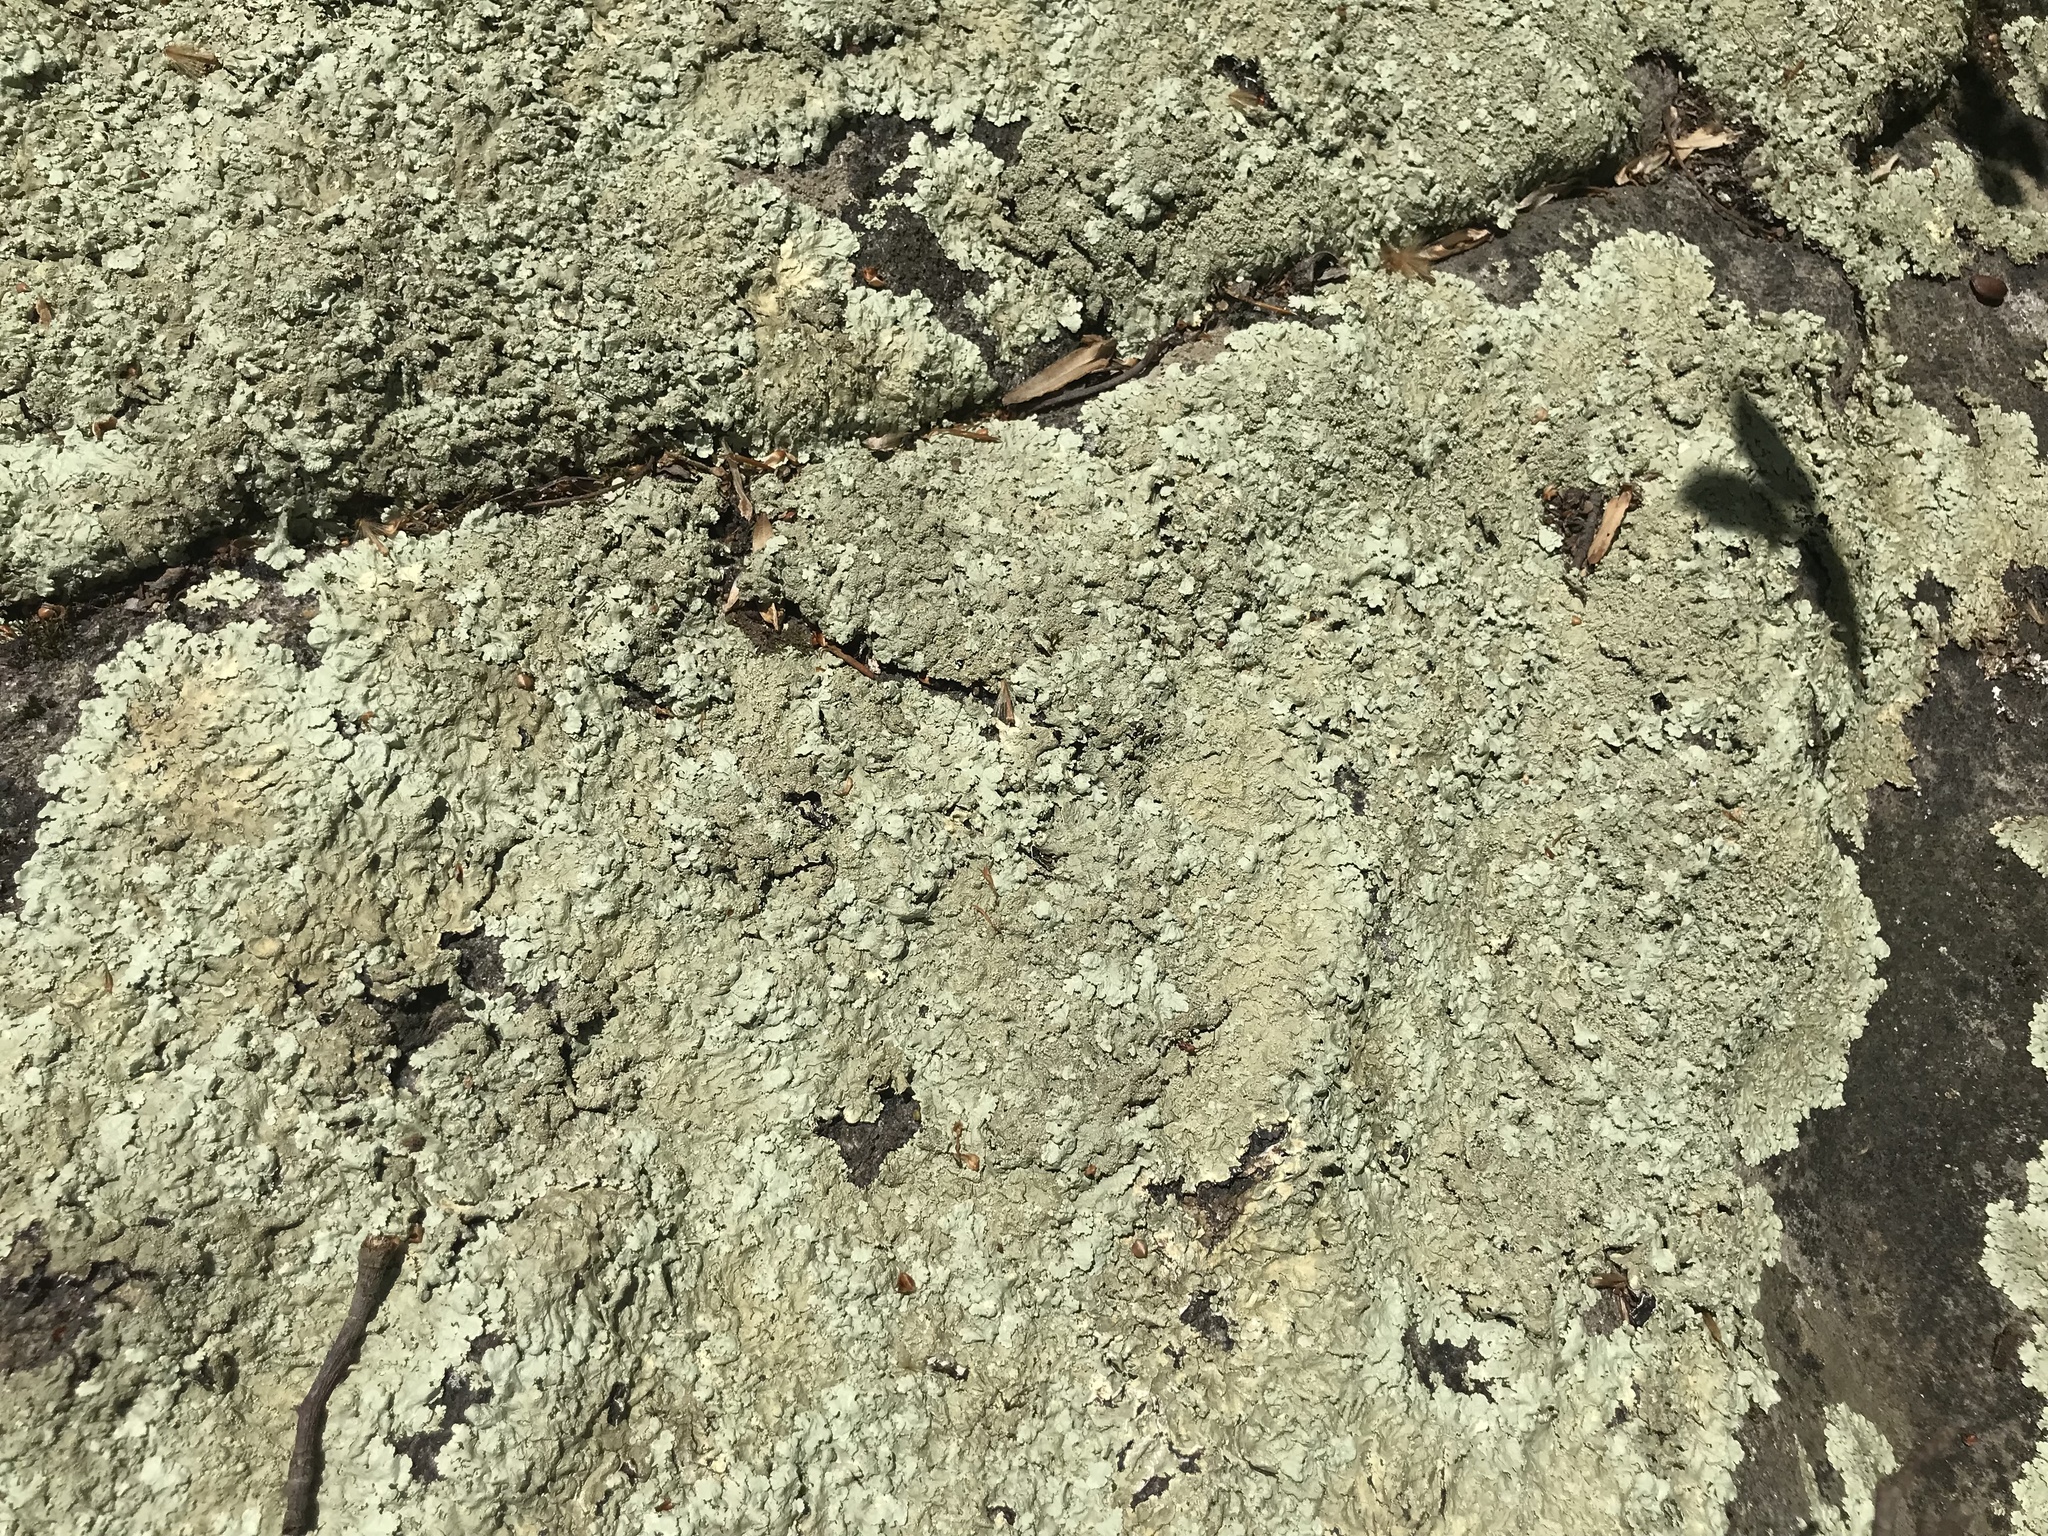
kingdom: Fungi
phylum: Ascomycota
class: Lecanoromycetes
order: Lecanorales
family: Parmeliaceae
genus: Flavoparmelia
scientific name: Flavoparmelia baltimorensis
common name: Rock greenshield
